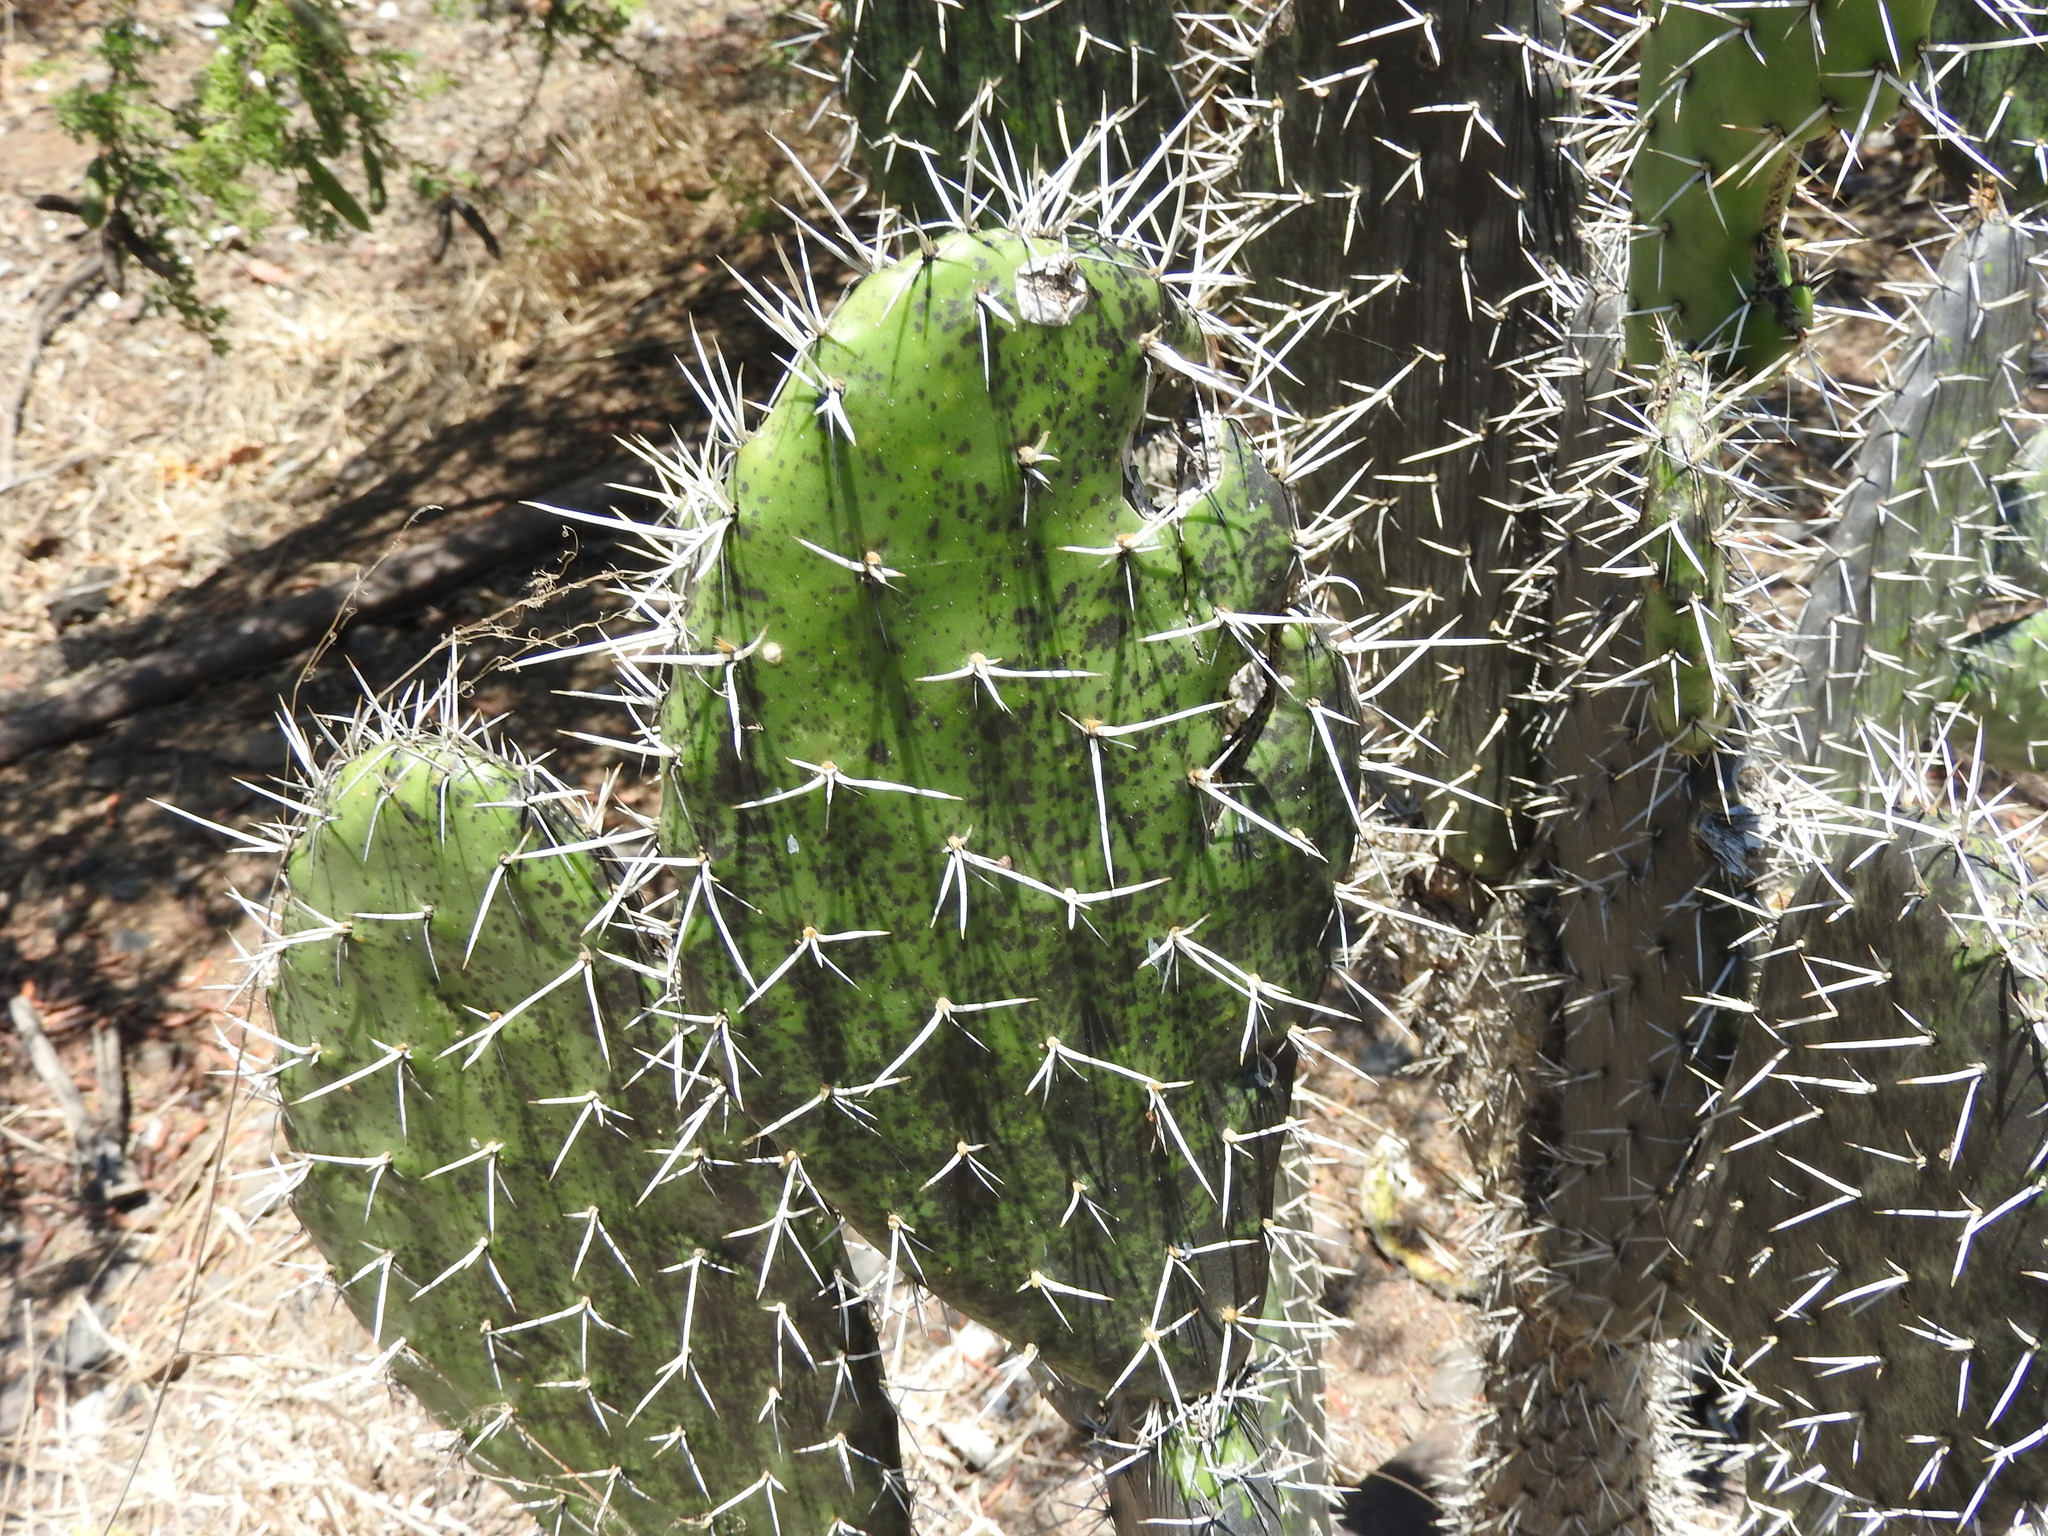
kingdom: Plantae
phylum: Tracheophyta
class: Magnoliopsida
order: Caryophyllales
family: Cactaceae
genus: Opuntia
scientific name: Opuntia jaliscana
